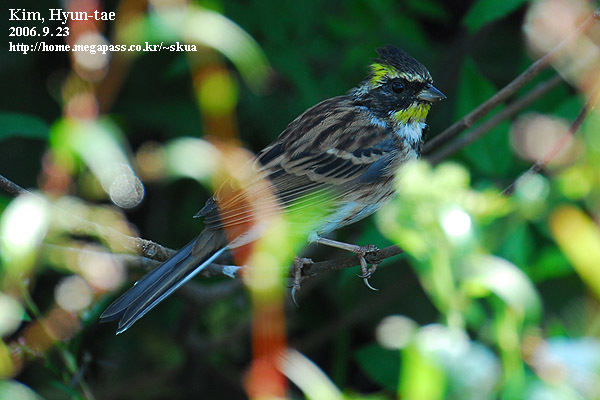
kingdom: Animalia
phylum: Chordata
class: Aves
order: Passeriformes
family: Emberizidae
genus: Emberiza
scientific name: Emberiza elegans
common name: Yellow-throated bunting
